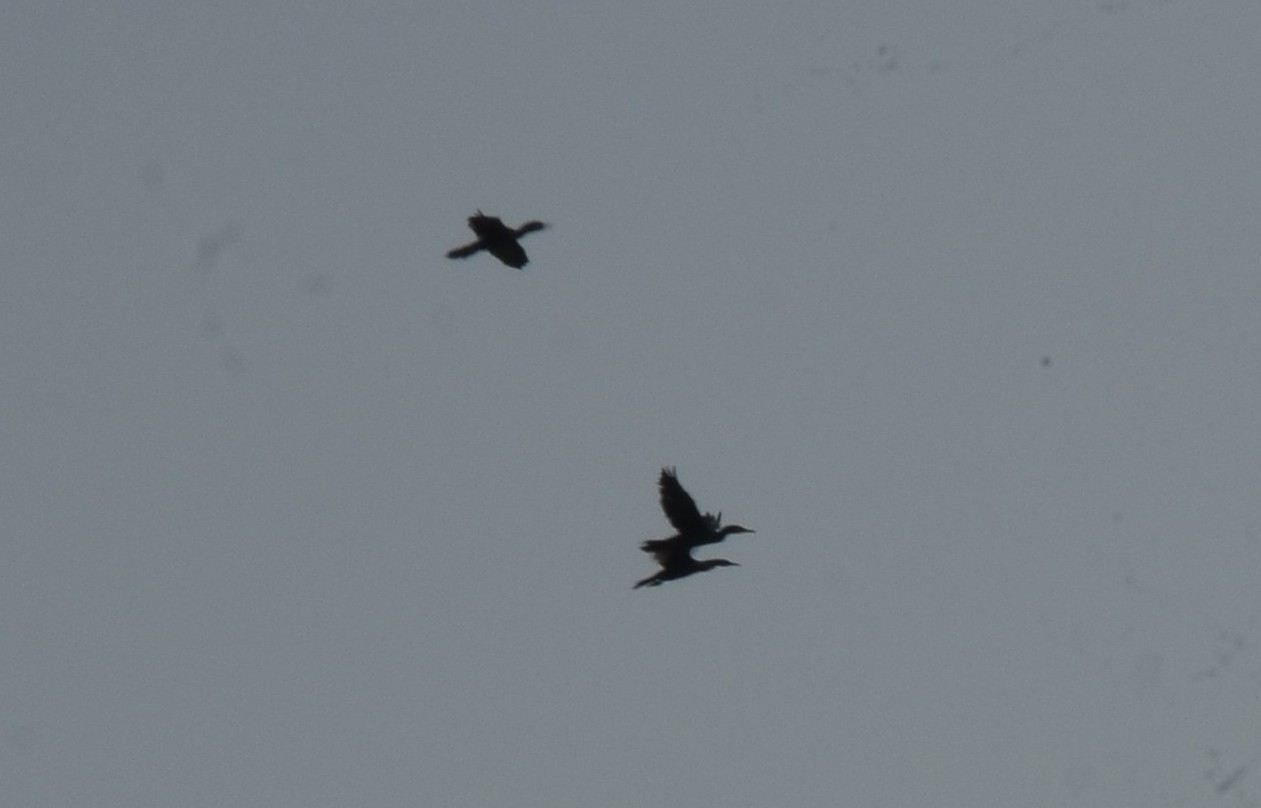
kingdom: Animalia
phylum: Chordata
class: Aves
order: Suliformes
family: Phalacrocoracidae
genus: Phalacrocorax
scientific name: Phalacrocorax fuscicollis
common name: Indian cormorant
